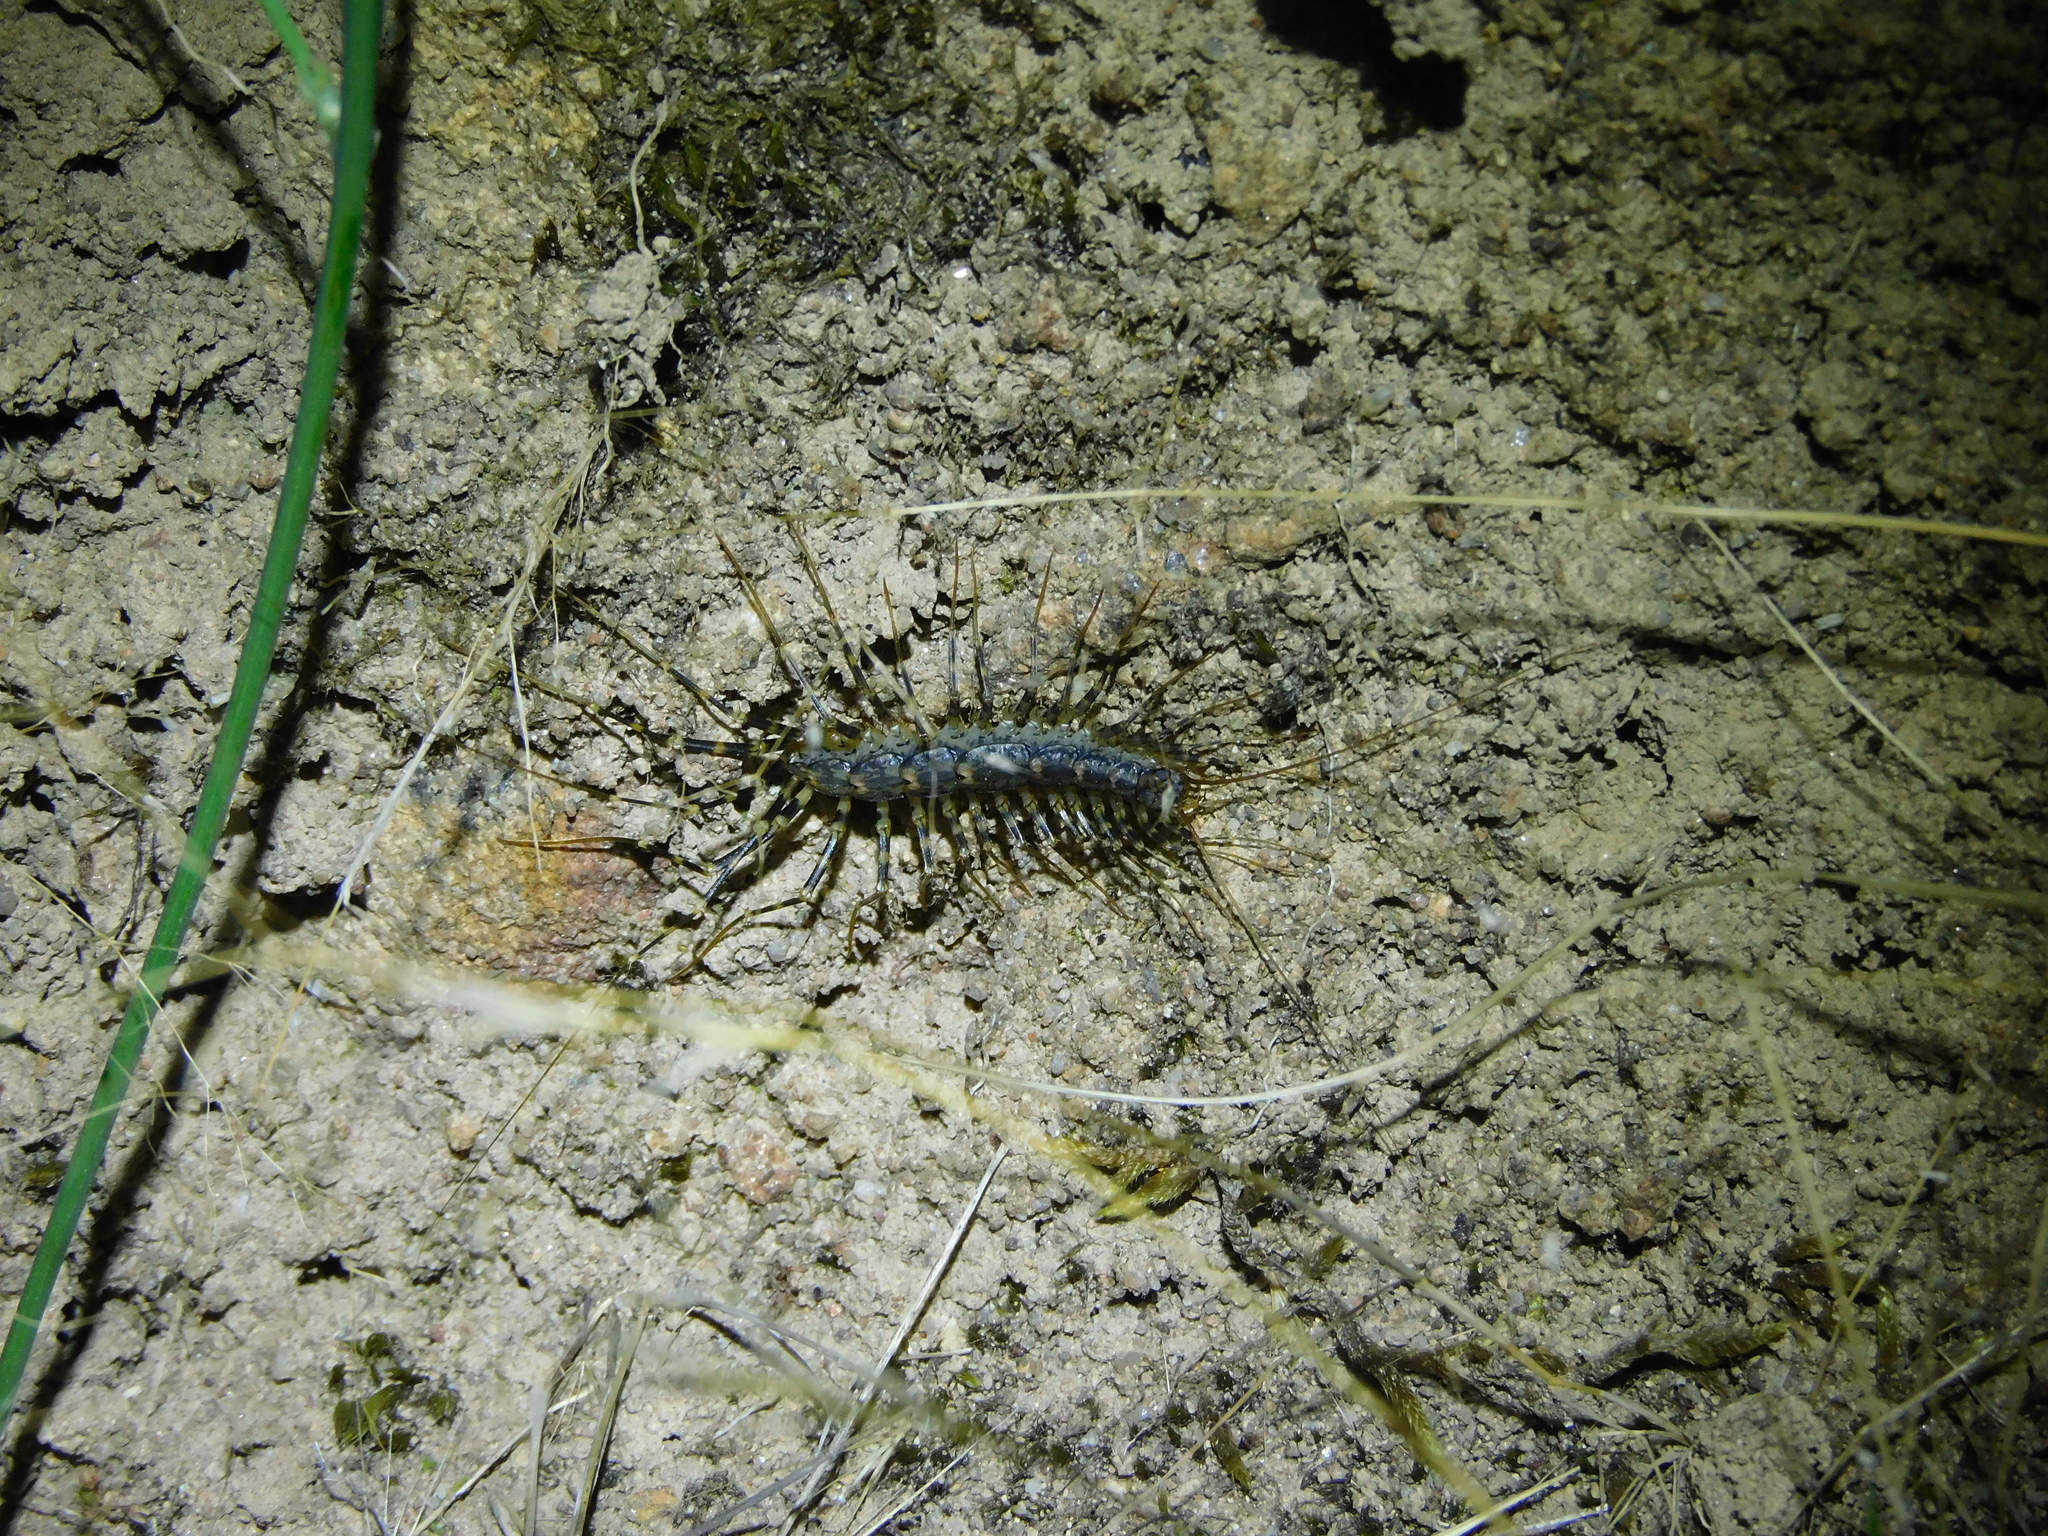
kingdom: Animalia
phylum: Arthropoda
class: Chilopoda
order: Scutigeromorpha
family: Scutigeridae
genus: Allothereua
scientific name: Allothereua maculata
